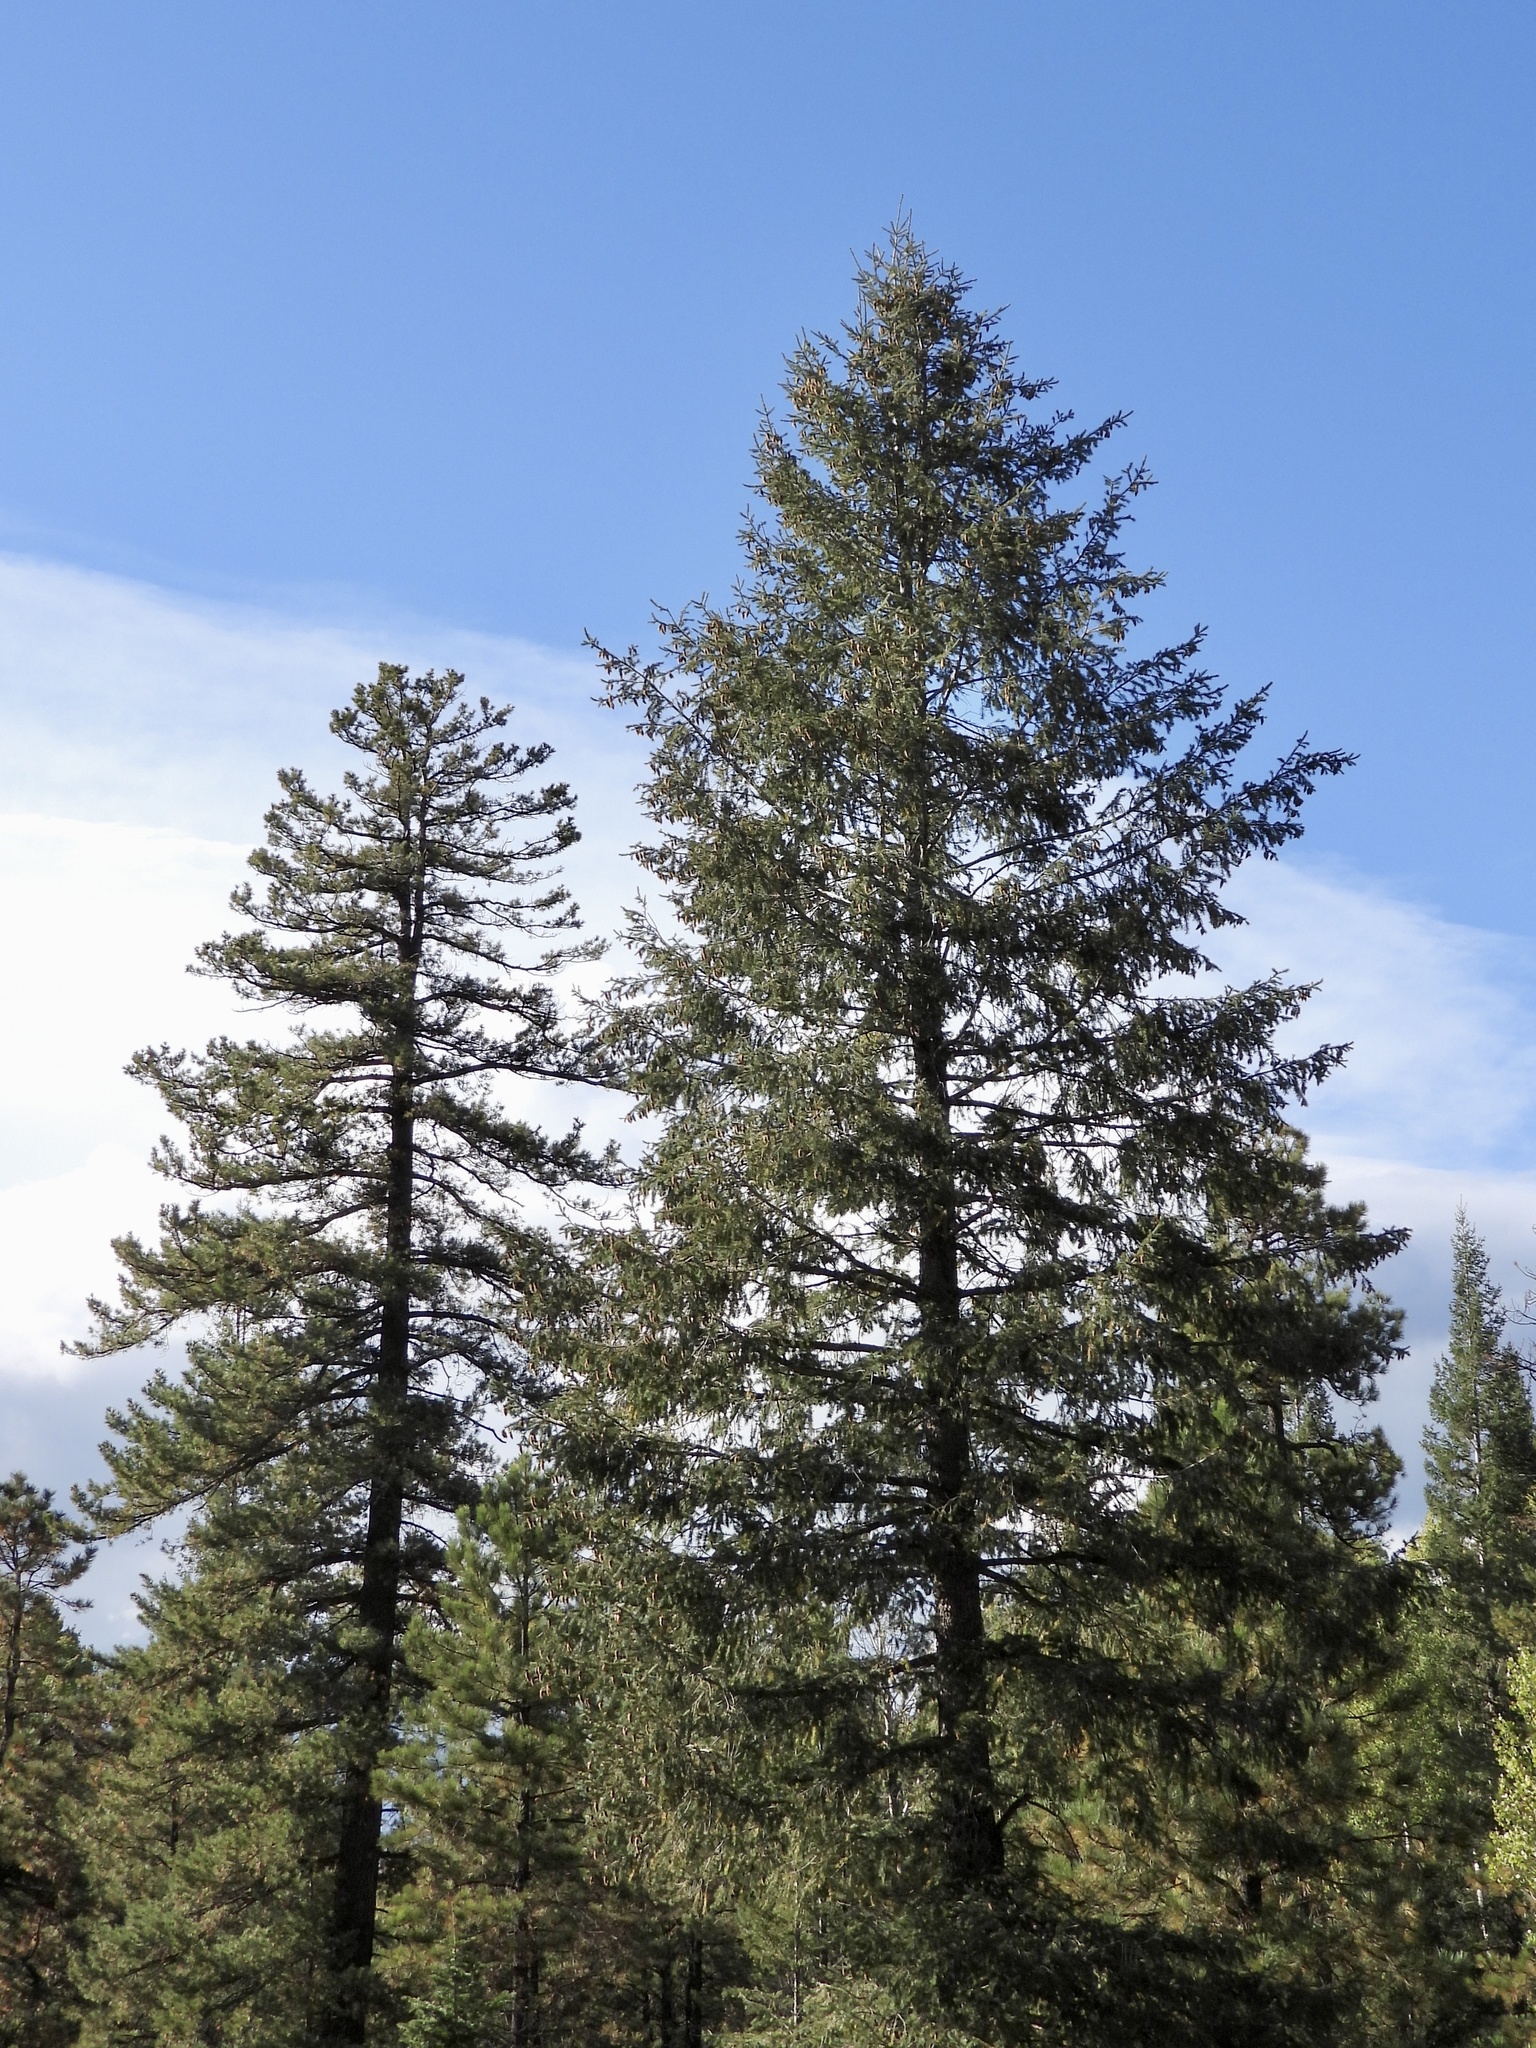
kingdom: Plantae
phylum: Tracheophyta
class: Pinopsida
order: Pinales
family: Pinaceae
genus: Pseudotsuga
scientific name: Pseudotsuga menziesii
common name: Douglas fir
